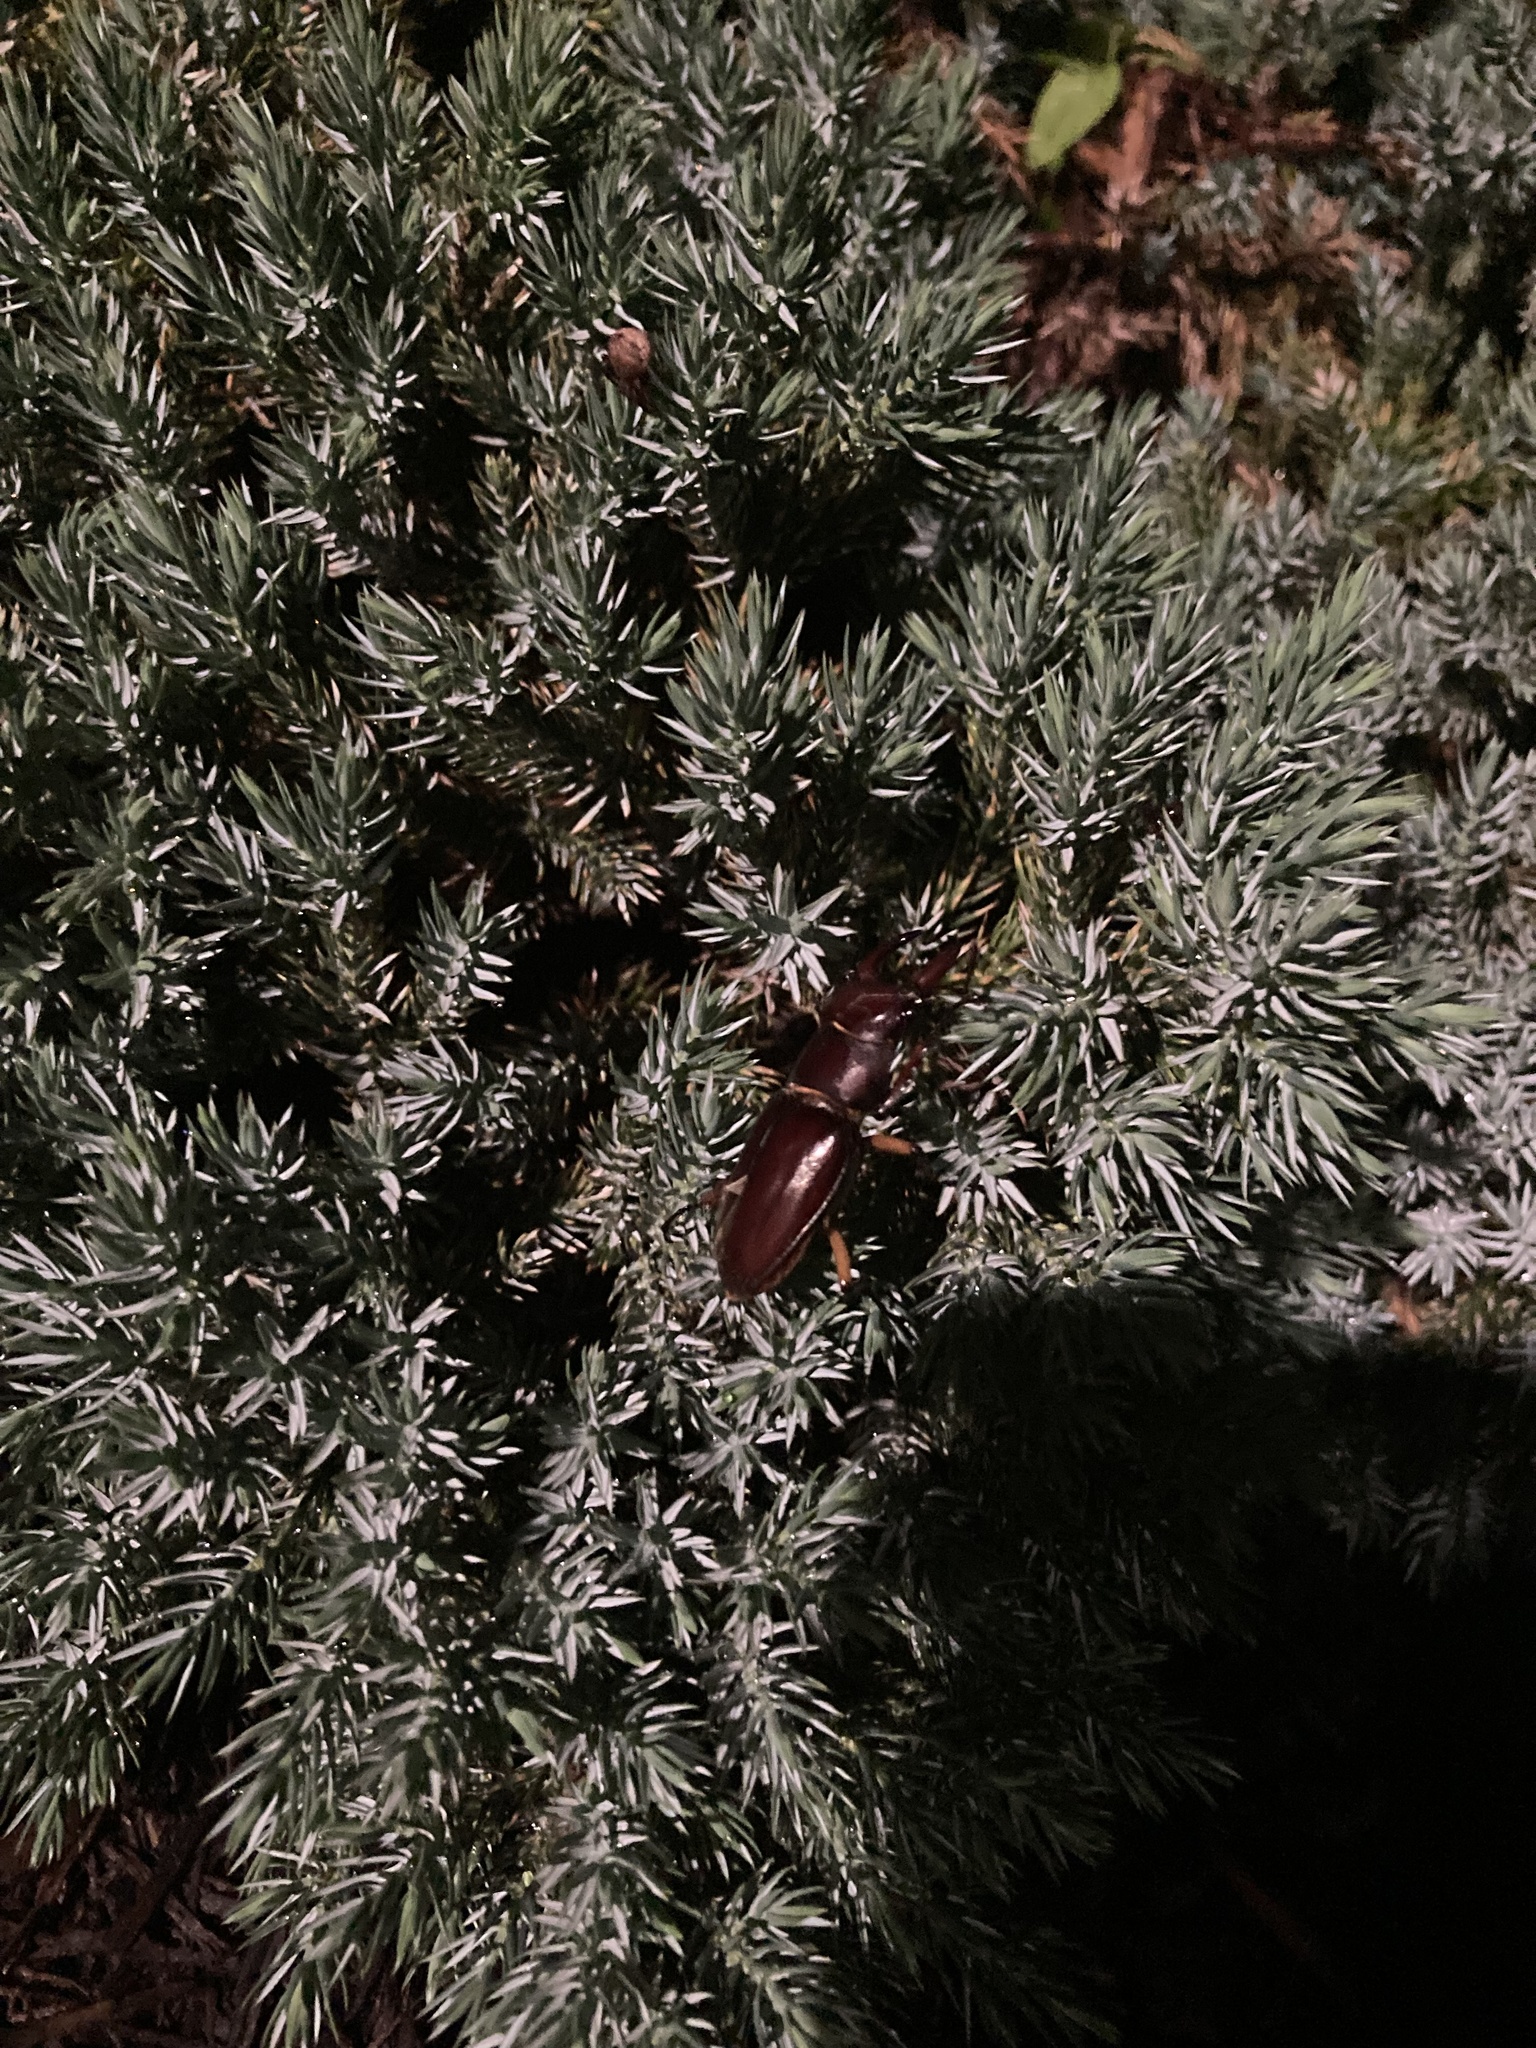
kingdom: Animalia
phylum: Arthropoda
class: Insecta
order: Coleoptera
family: Lucanidae
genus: Lucanus
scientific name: Lucanus capreolus
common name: Stag beetle
